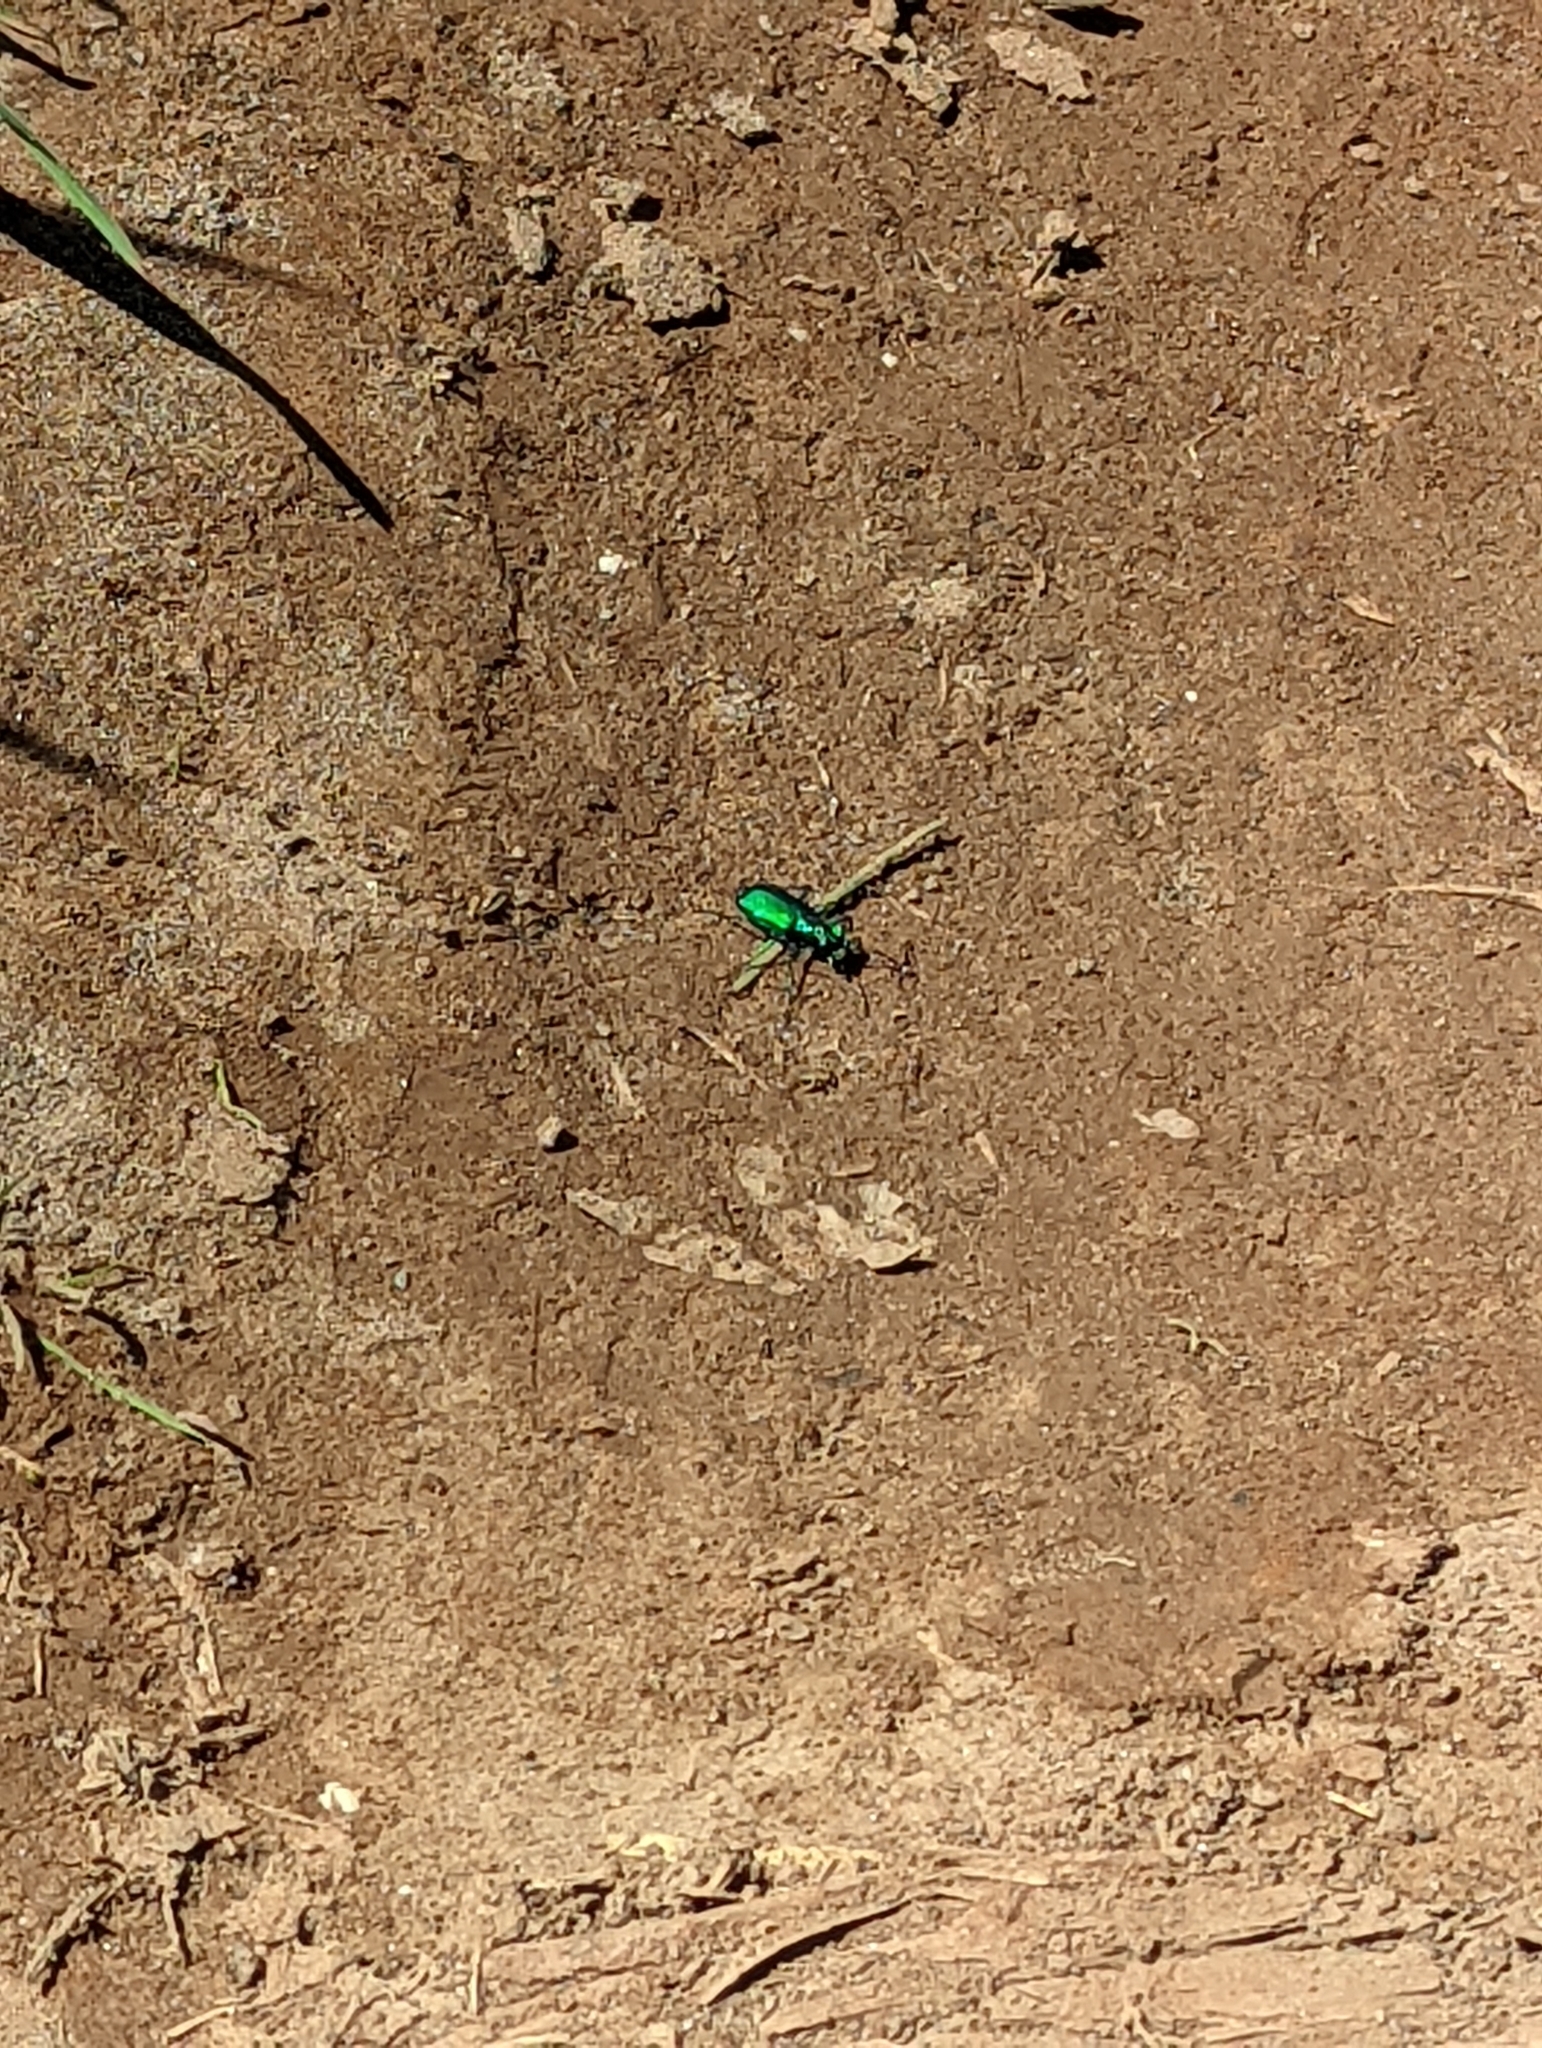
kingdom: Animalia
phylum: Arthropoda
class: Insecta
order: Coleoptera
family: Carabidae
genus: Cicindela
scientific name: Cicindela sexguttata
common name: Six-spotted tiger beetle
